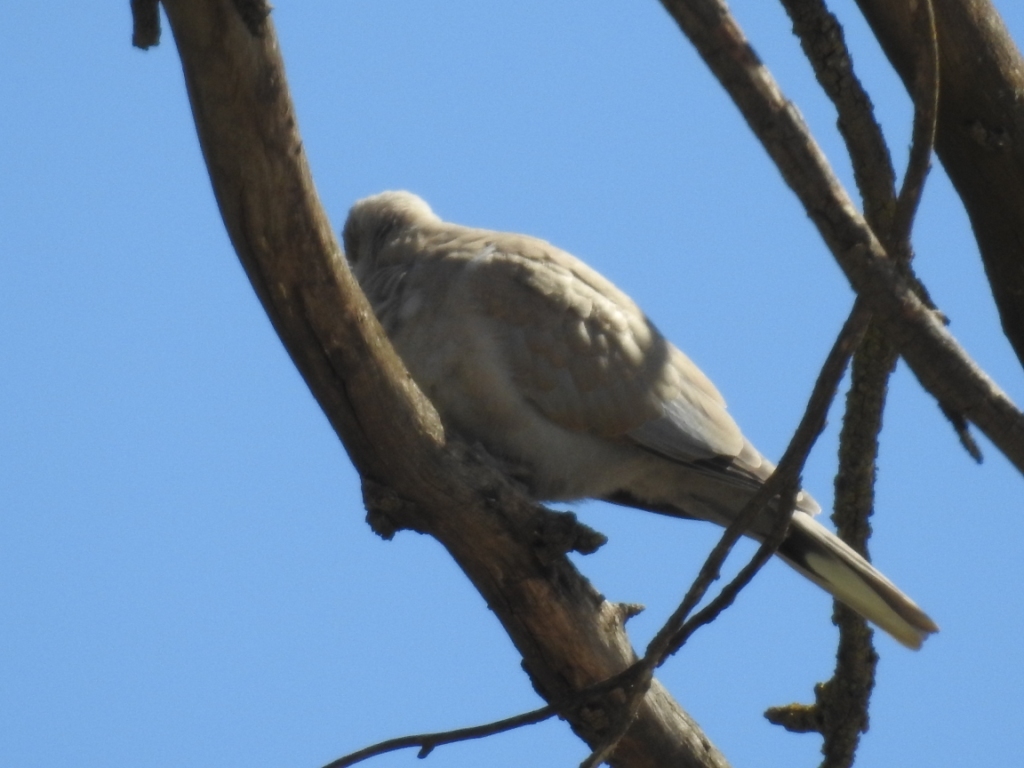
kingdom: Animalia
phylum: Chordata
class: Aves
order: Columbiformes
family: Columbidae
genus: Streptopelia
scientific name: Streptopelia decaocto
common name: Eurasian collared dove
